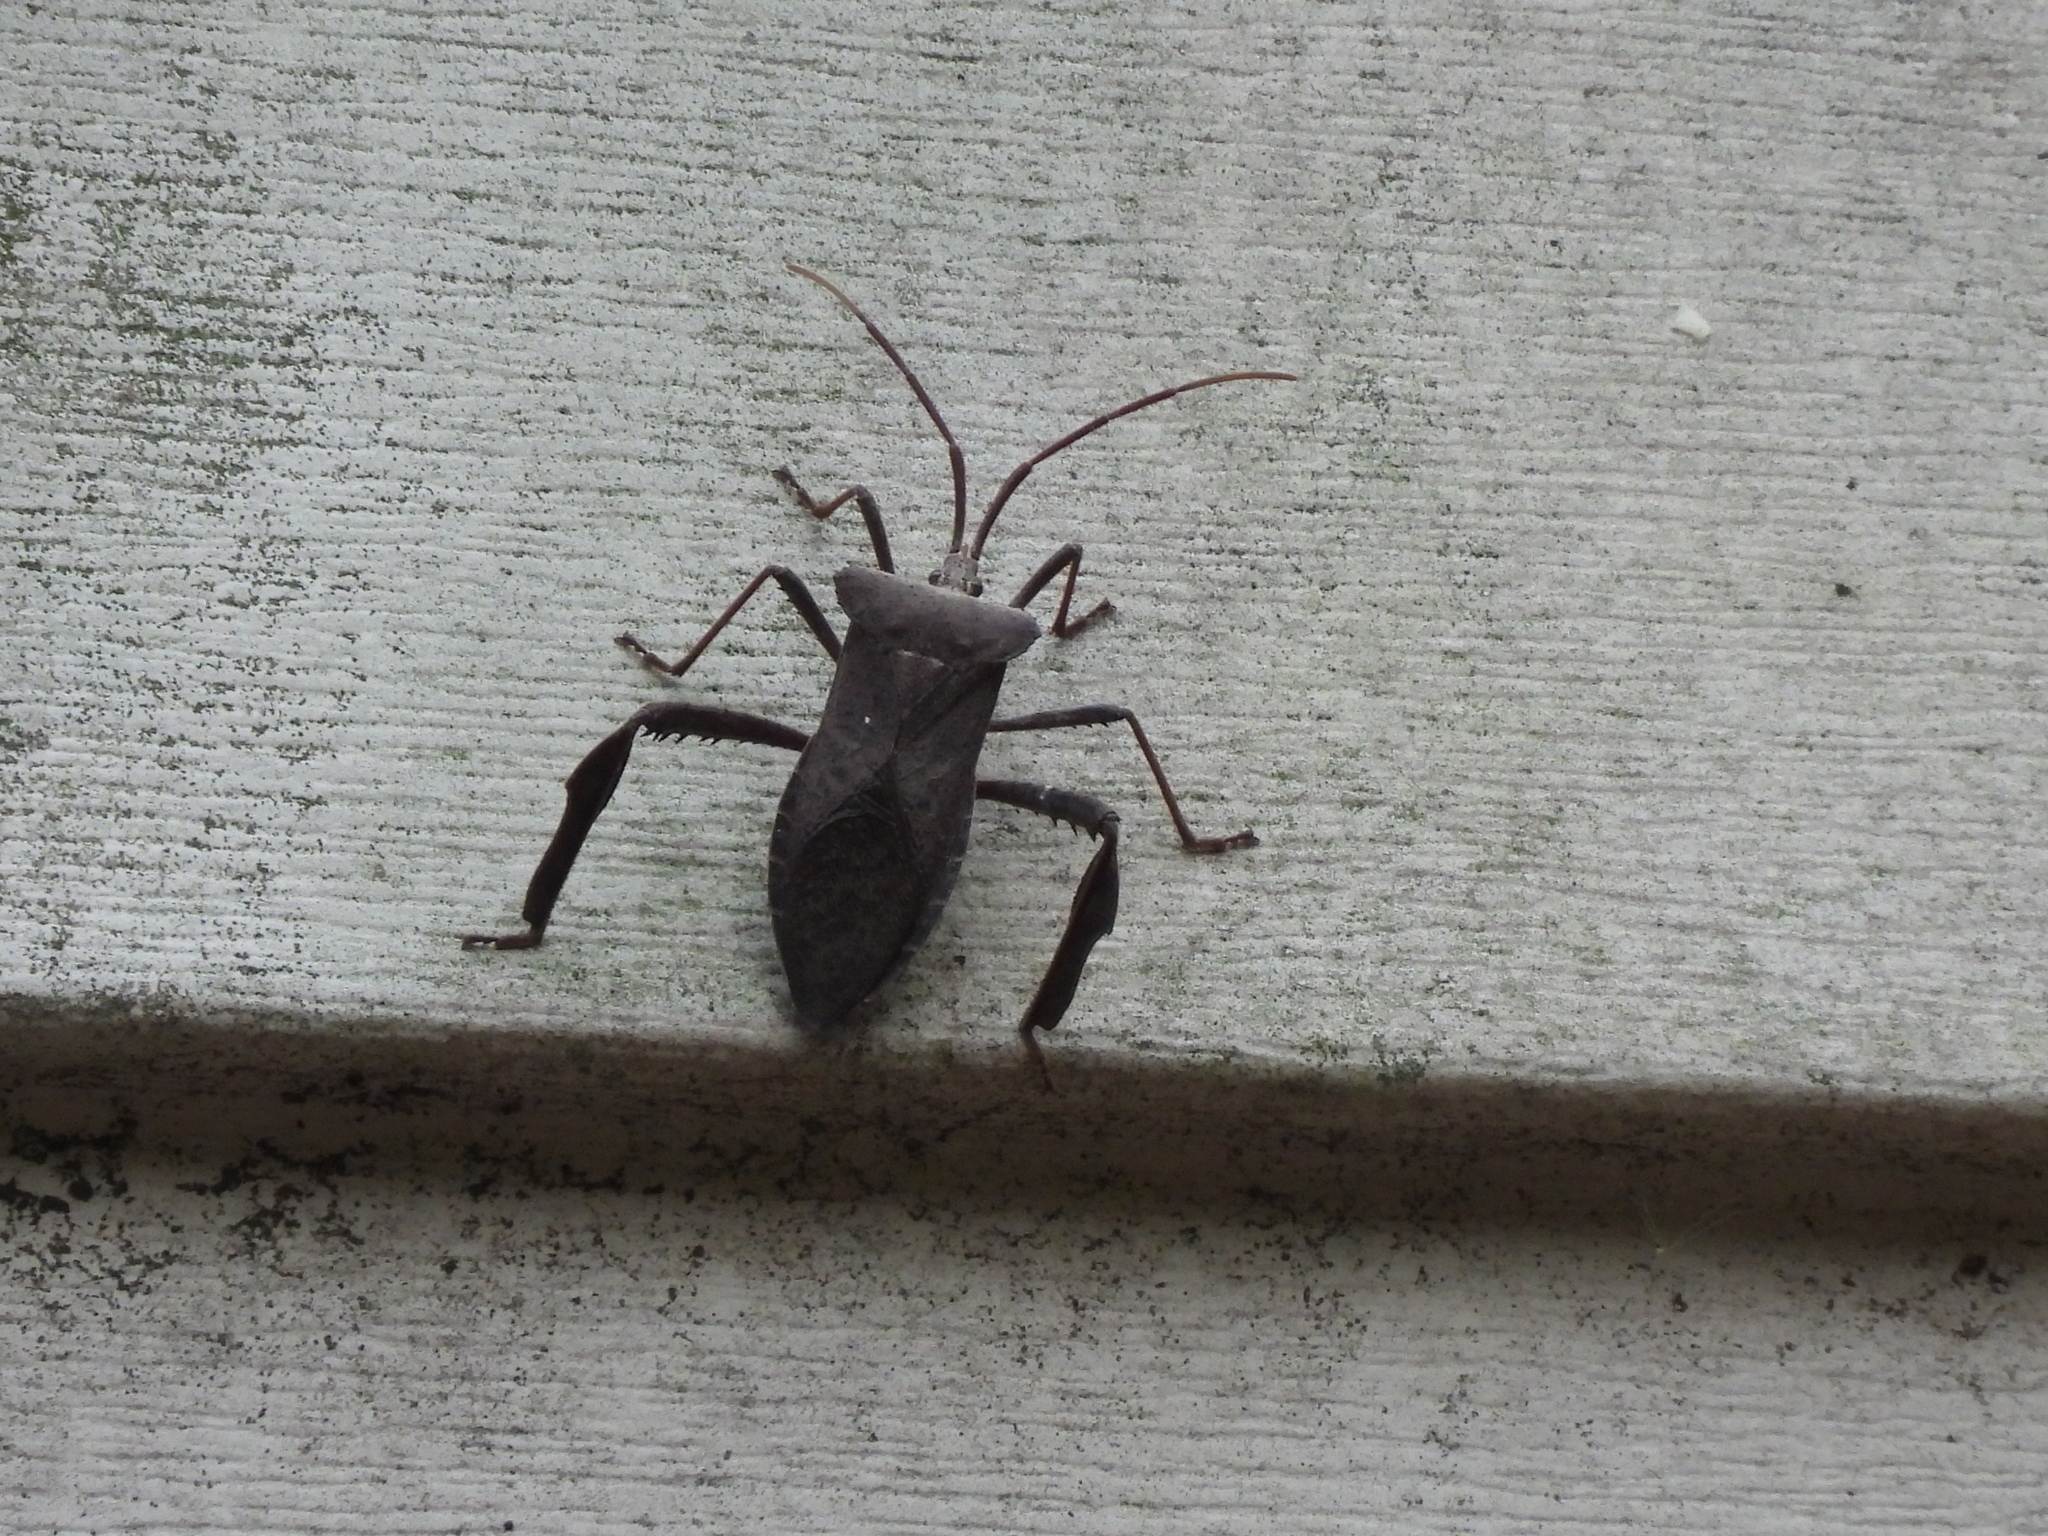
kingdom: Animalia
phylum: Arthropoda
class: Insecta
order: Hemiptera
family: Coreidae
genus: Acanthocephala
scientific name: Acanthocephala declivis
